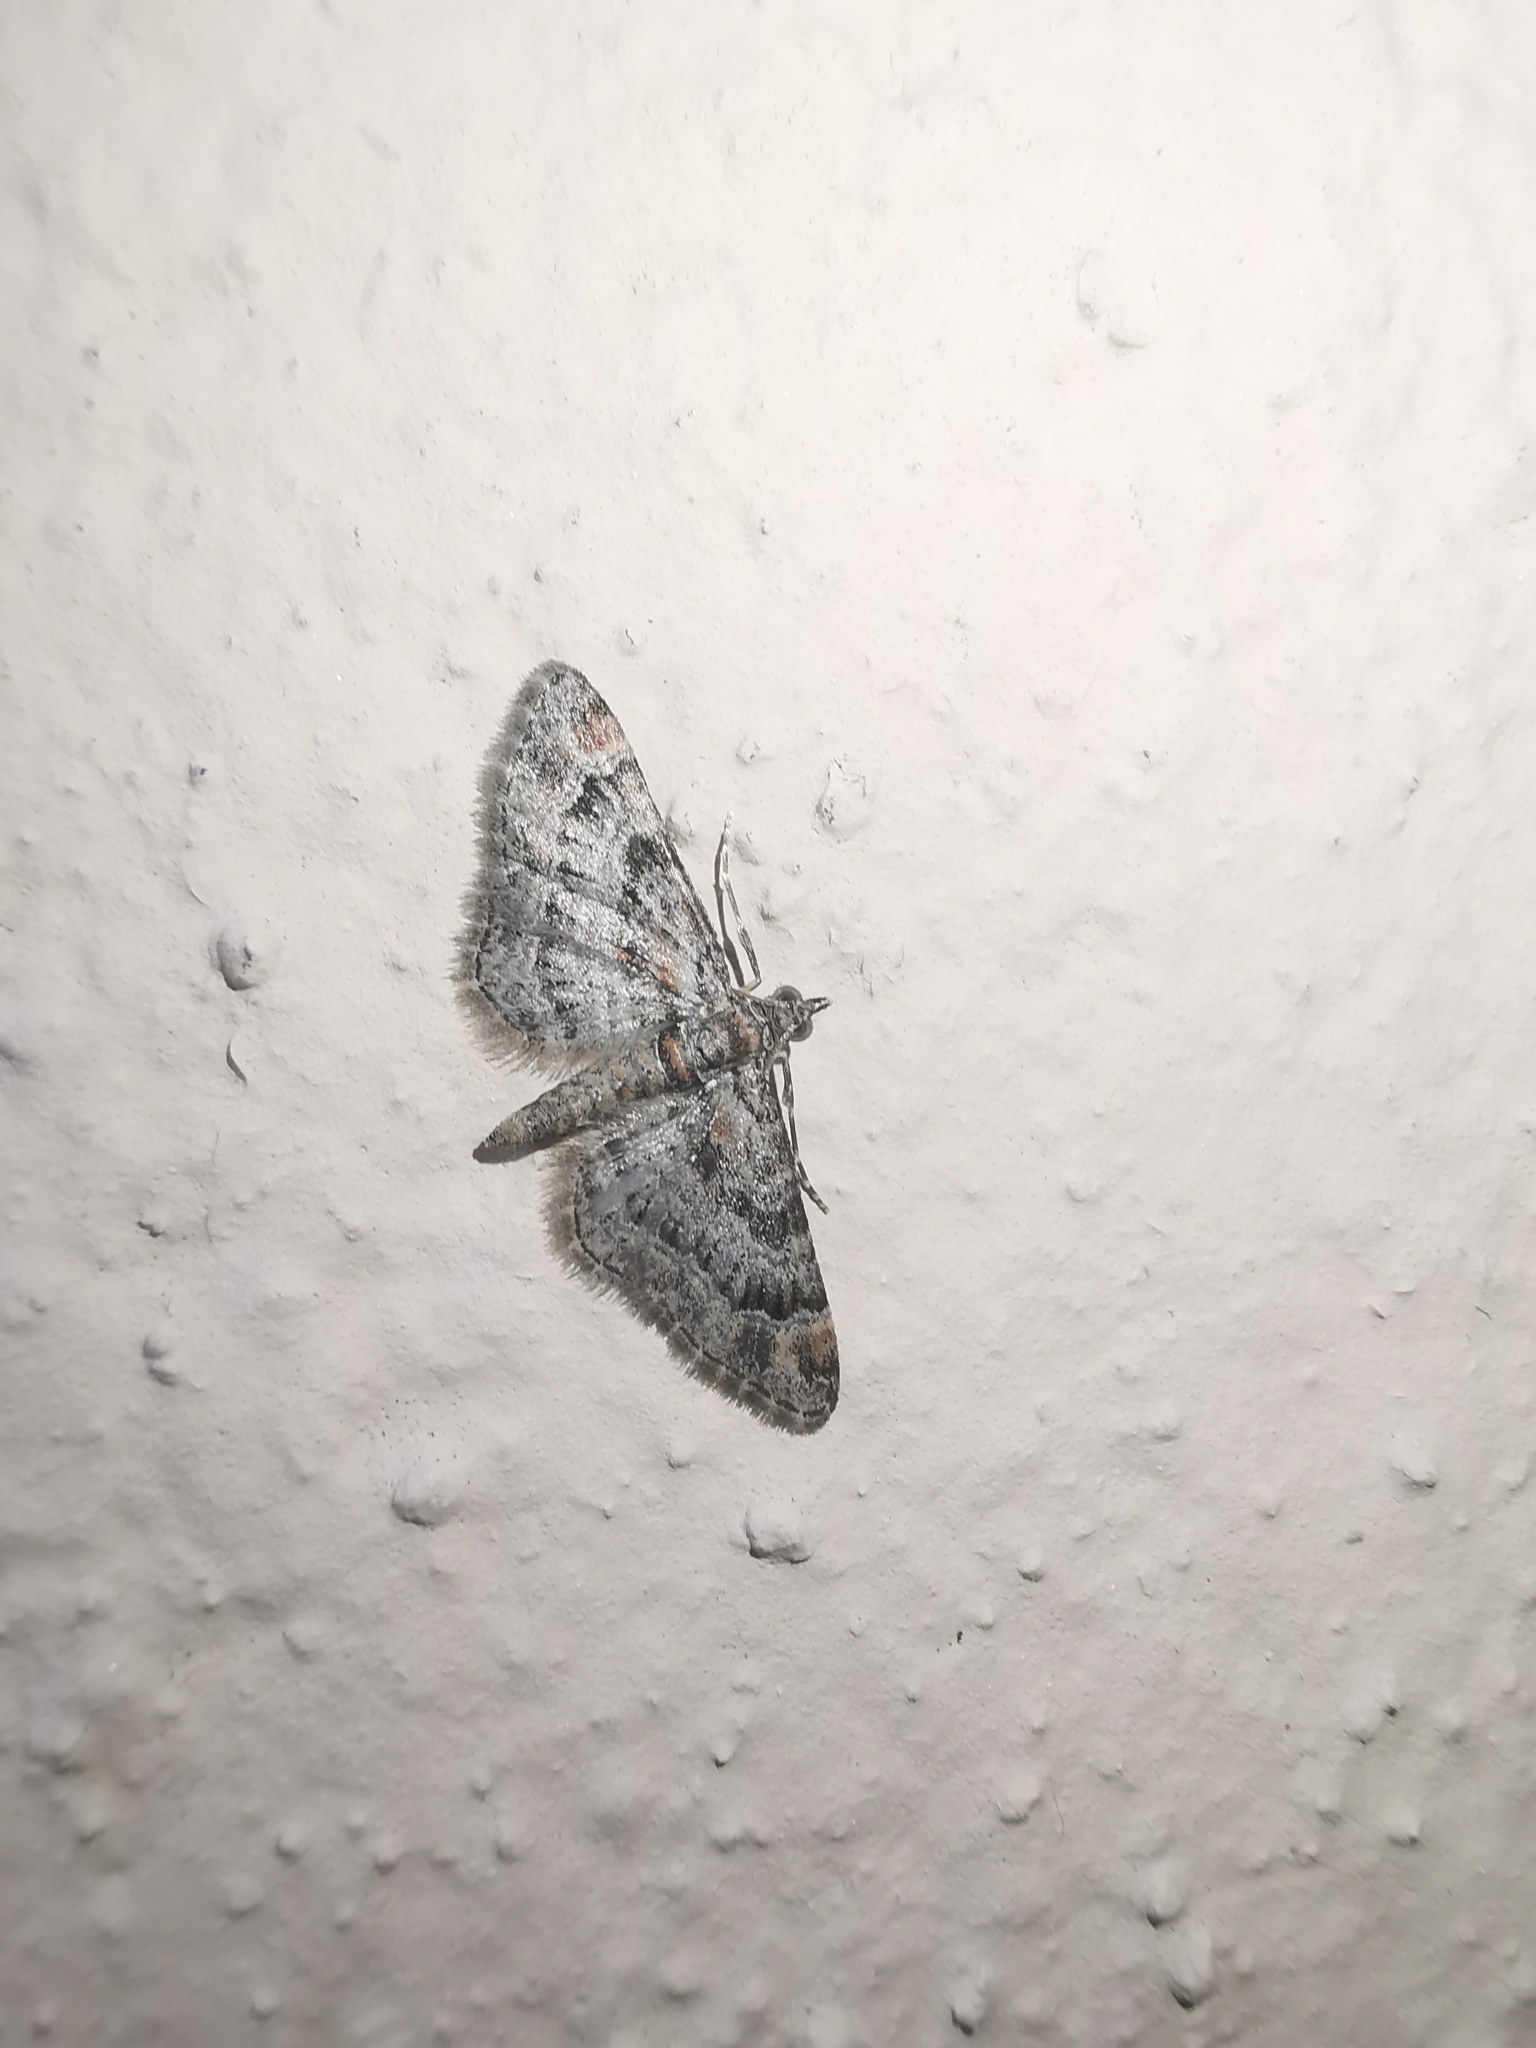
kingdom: Animalia
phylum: Arthropoda
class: Insecta
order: Lepidoptera
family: Geometridae
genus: Gymnoscelis
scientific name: Gymnoscelis rufifasciata
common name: Double-striped pug
